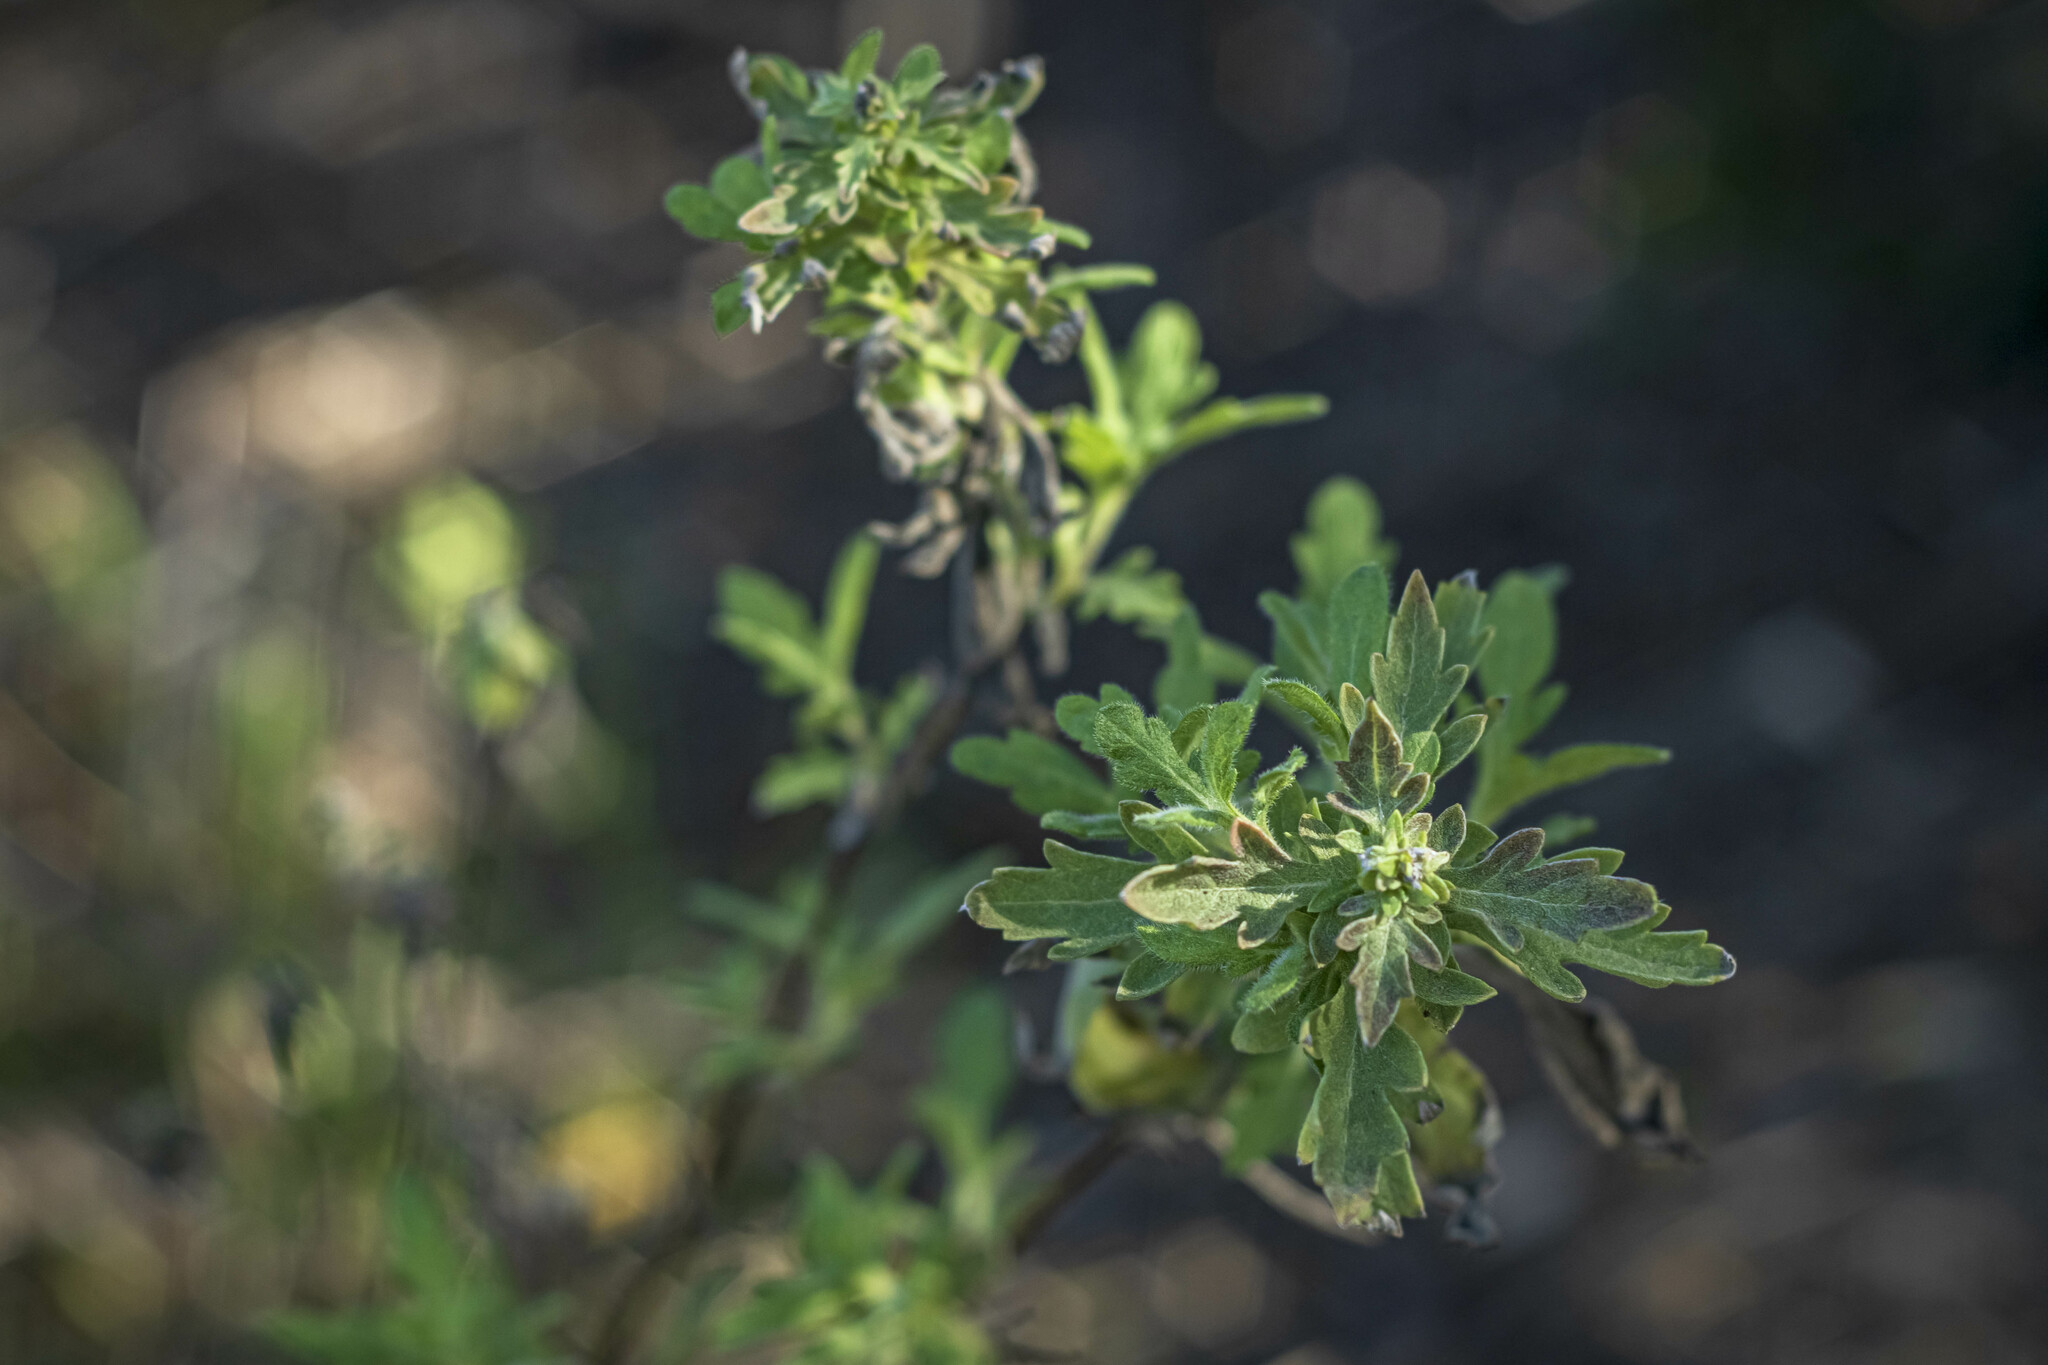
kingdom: Plantae
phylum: Tracheophyta
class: Magnoliopsida
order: Asterales
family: Asteraceae
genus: Ambrosia
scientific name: Ambrosia psilostachya
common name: Perennial ragweed
